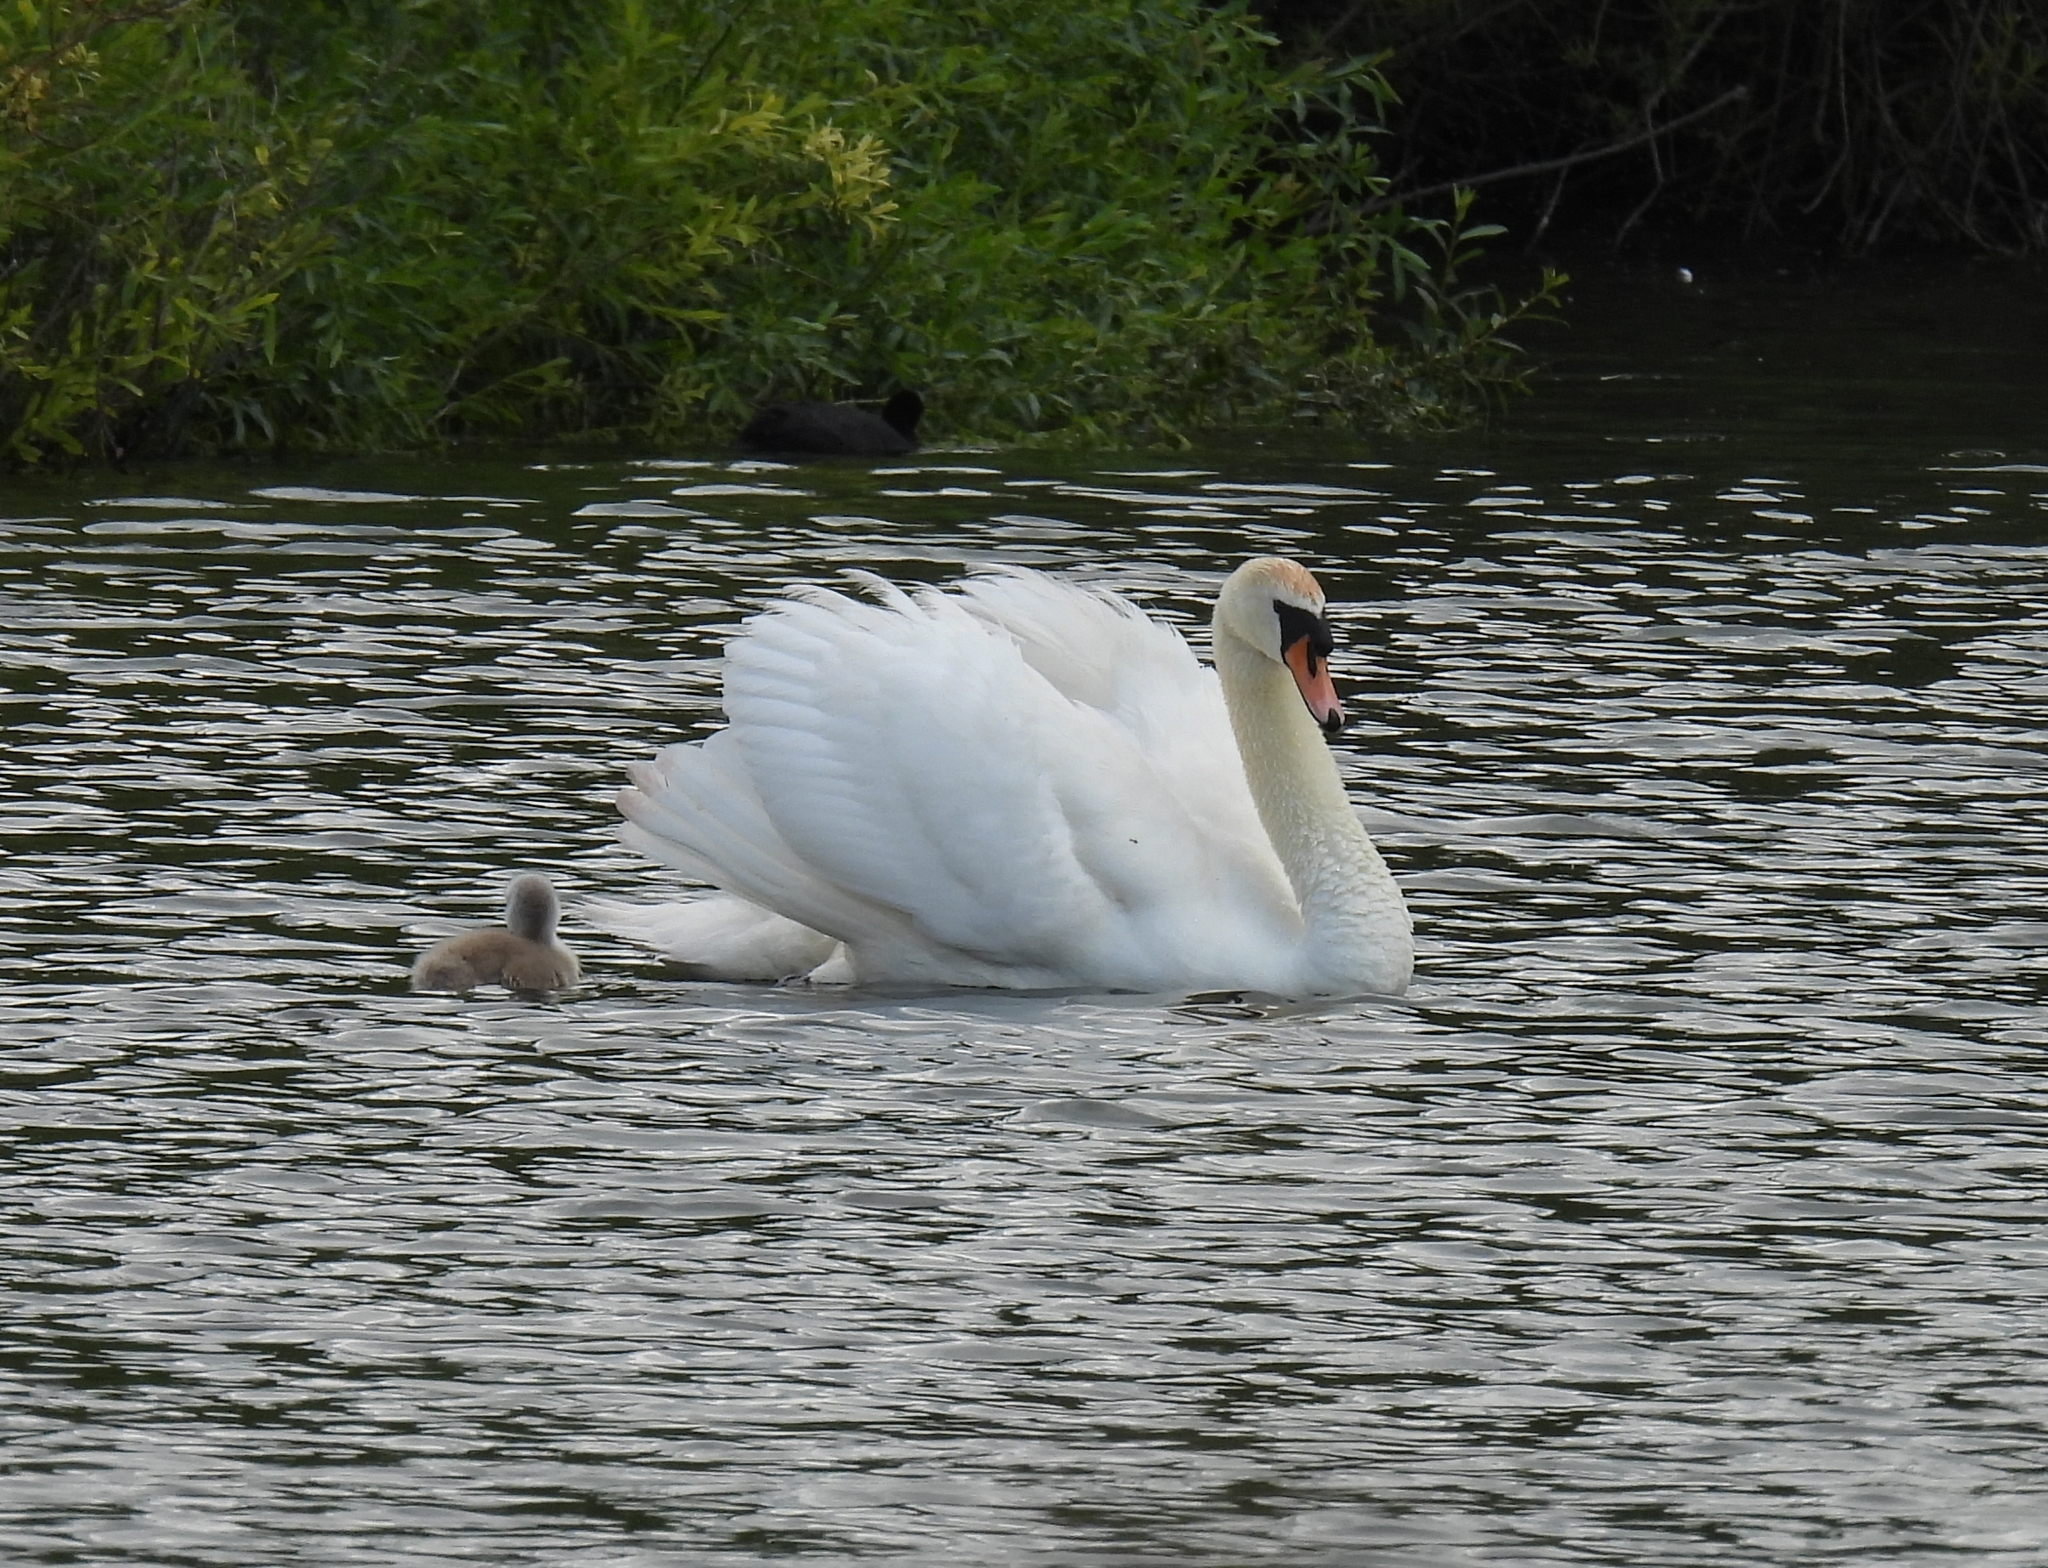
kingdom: Animalia
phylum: Chordata
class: Aves
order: Anseriformes
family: Anatidae
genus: Cygnus
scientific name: Cygnus olor
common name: Mute swan
